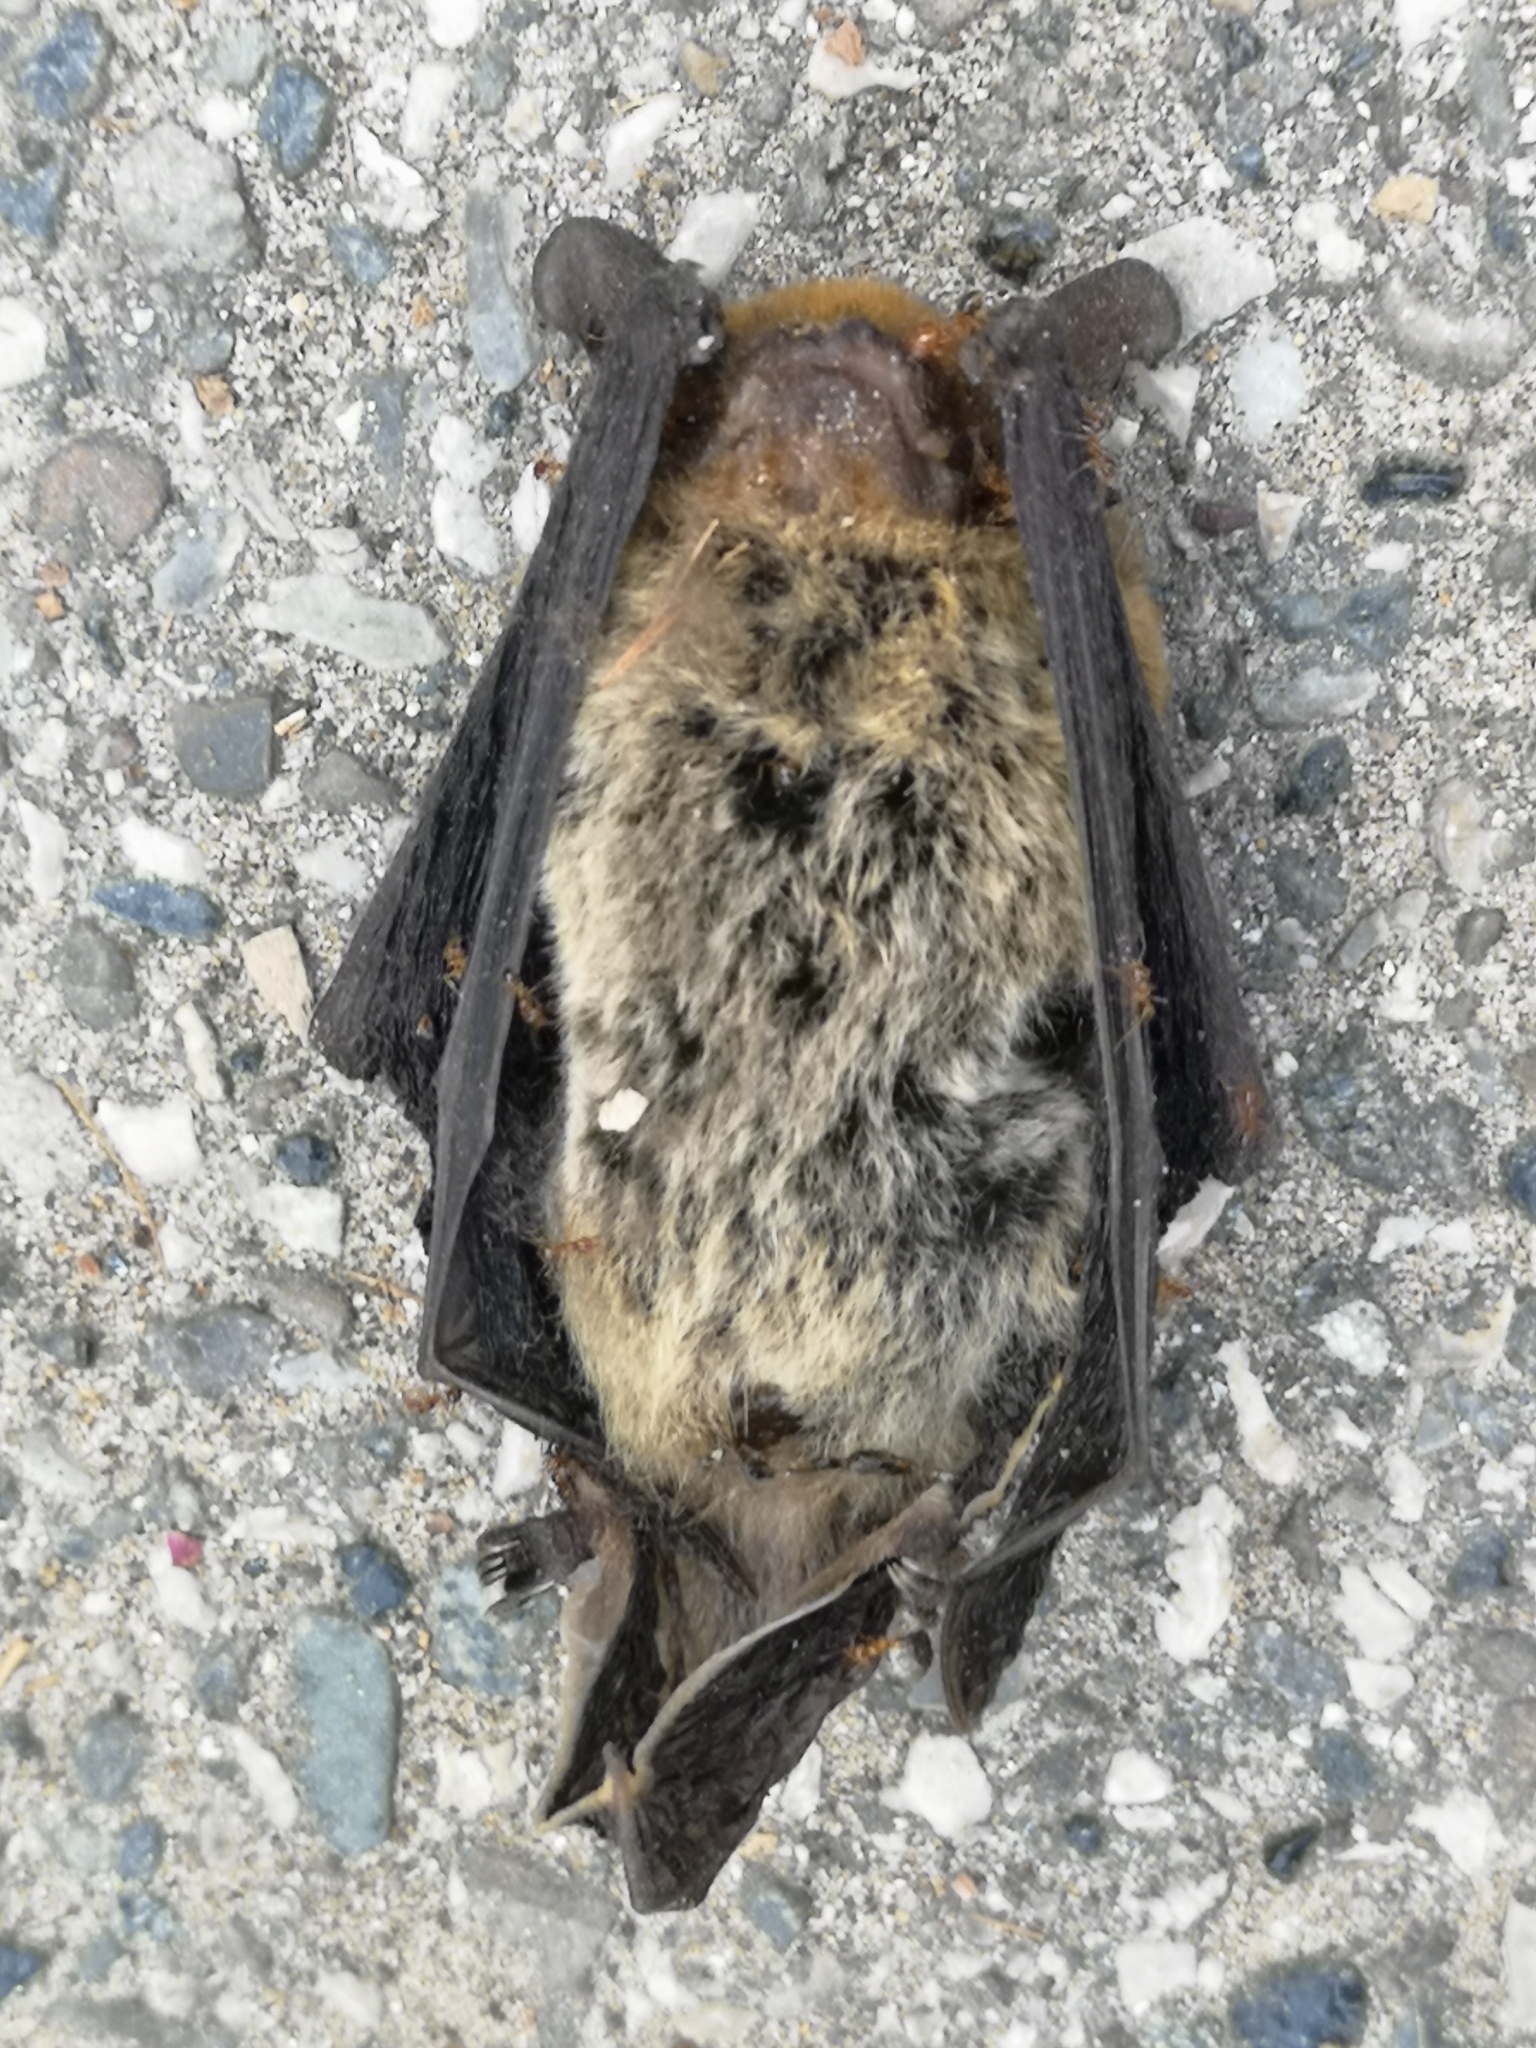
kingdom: Animalia
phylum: Chordata
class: Mammalia
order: Chiroptera
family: Vespertilionidae
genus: Pipistrellus
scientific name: Pipistrellus kuhlii
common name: Kuhl's pipistrelle
